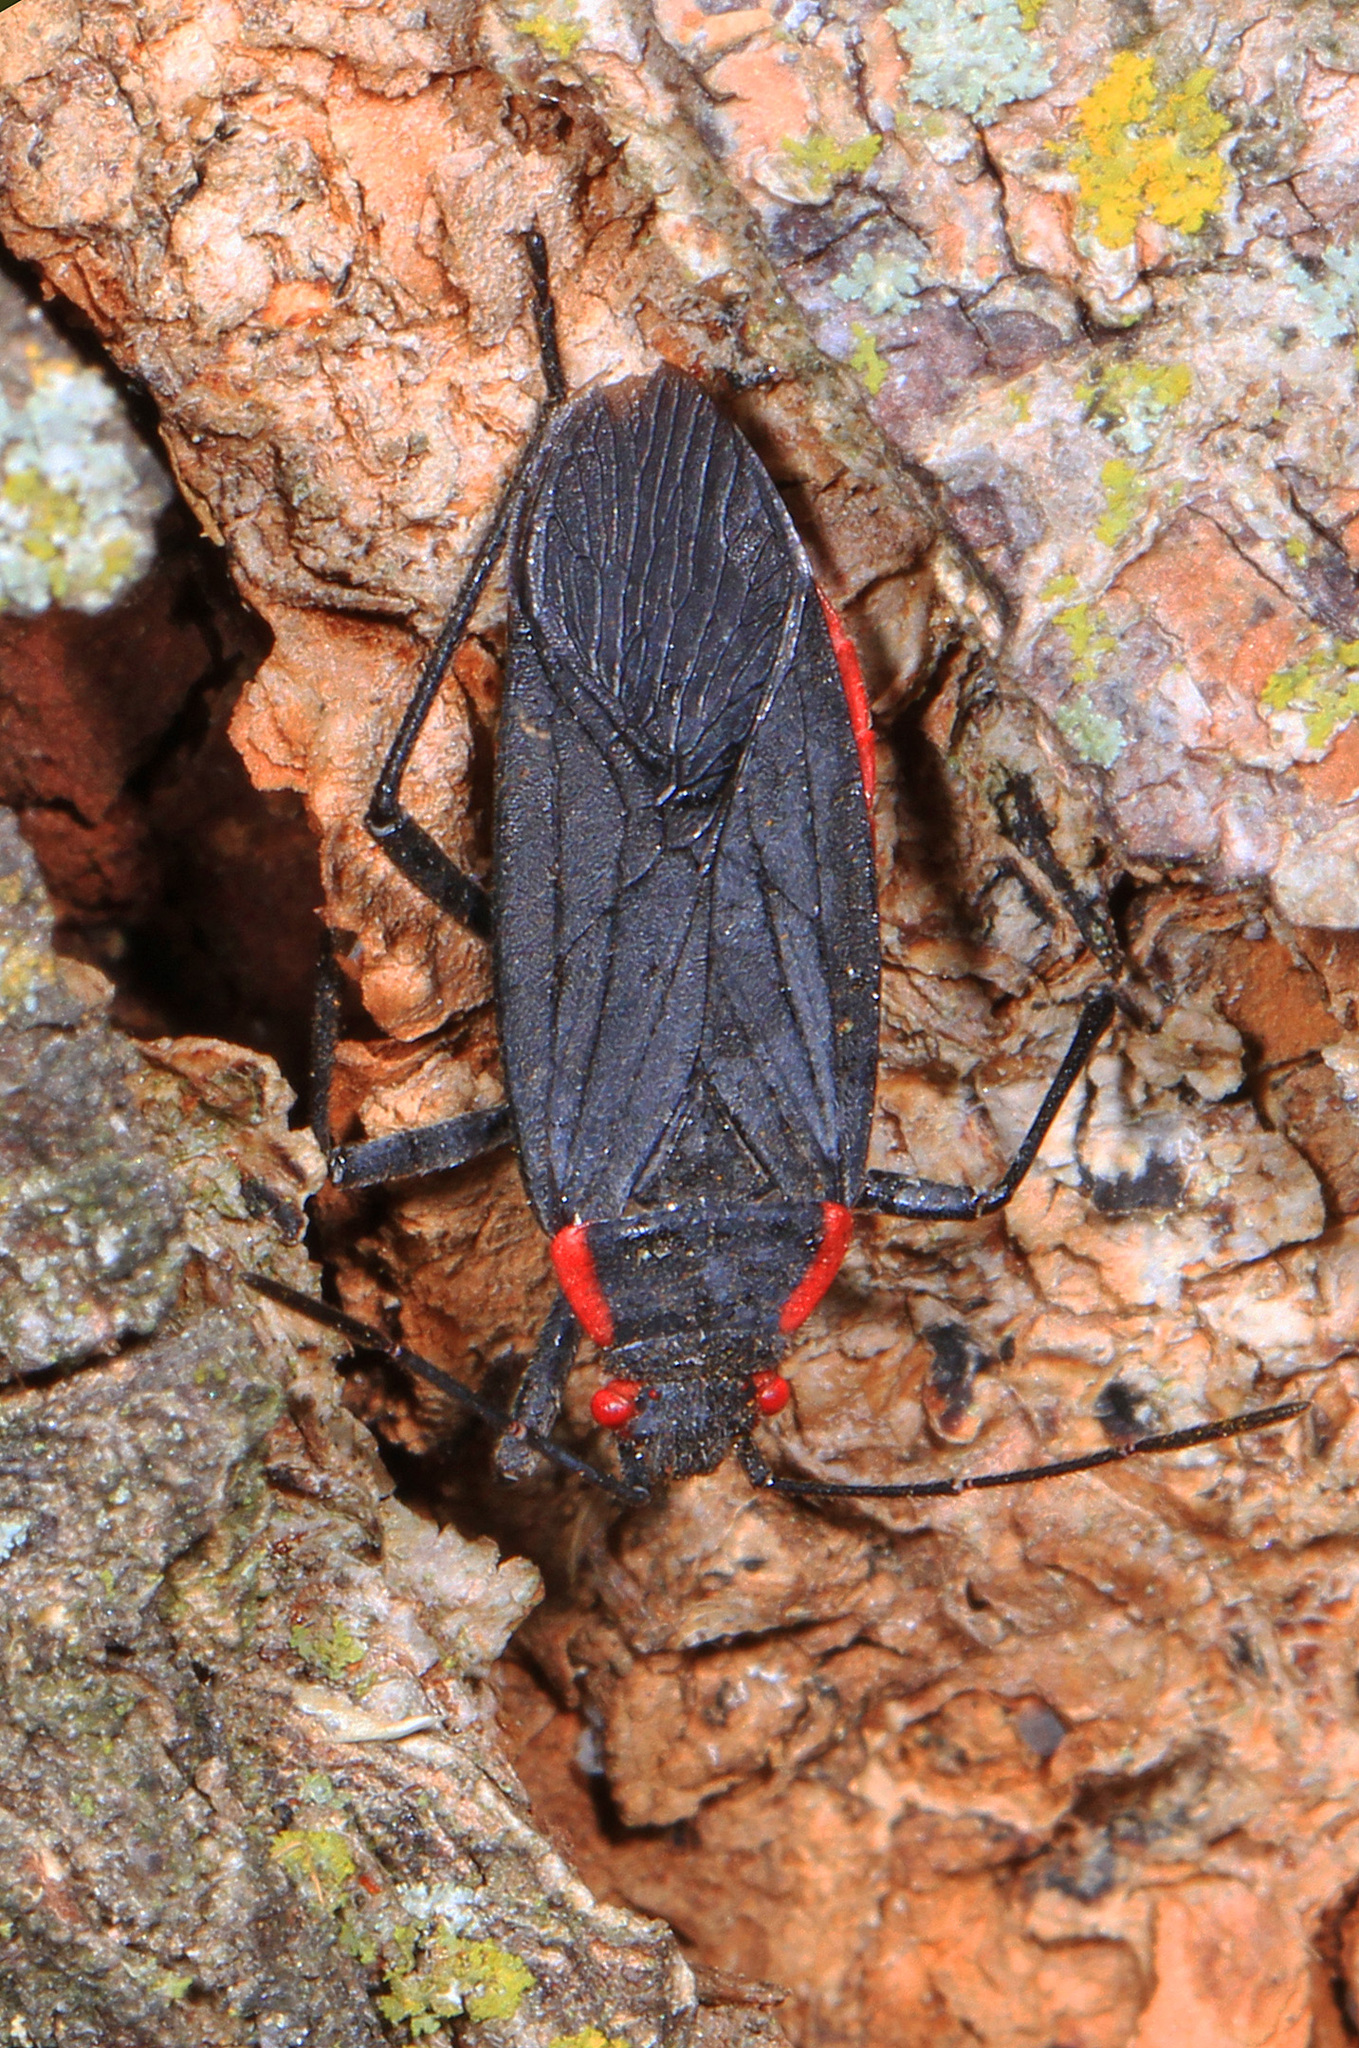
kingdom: Animalia
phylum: Arthropoda
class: Insecta
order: Hemiptera
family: Rhopalidae
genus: Jadera
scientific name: Jadera haematoloma
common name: Red-shouldered bug
